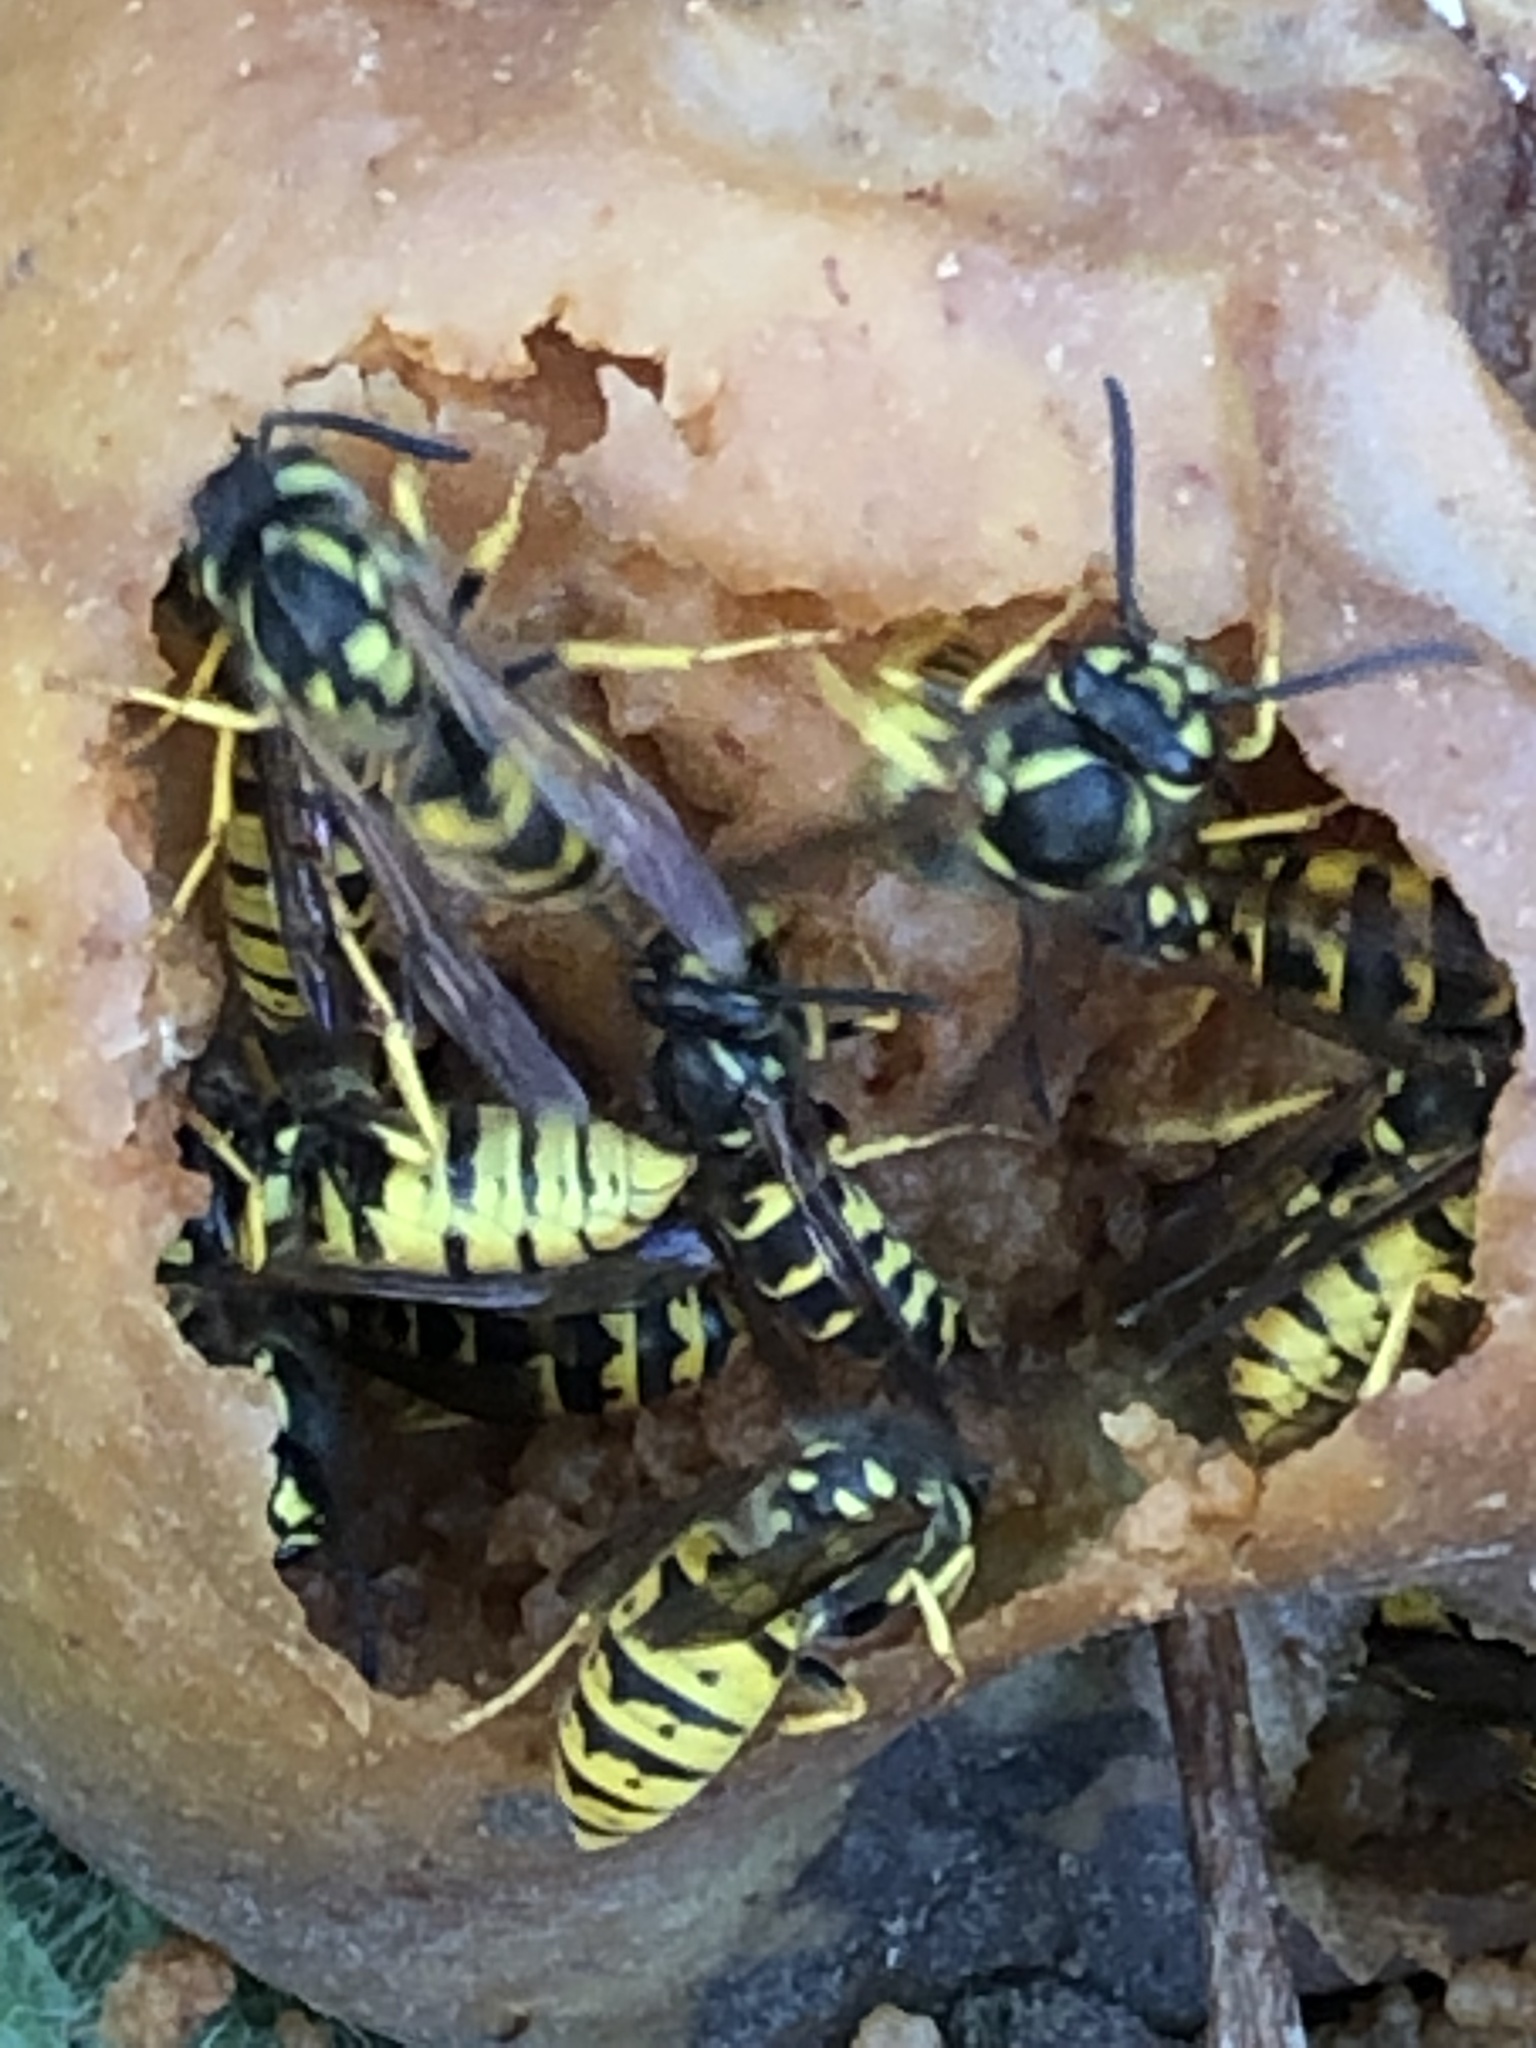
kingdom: Animalia
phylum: Arthropoda
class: Insecta
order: Hymenoptera
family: Vespidae
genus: Vespula
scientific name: Vespula germanica
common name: German wasp
